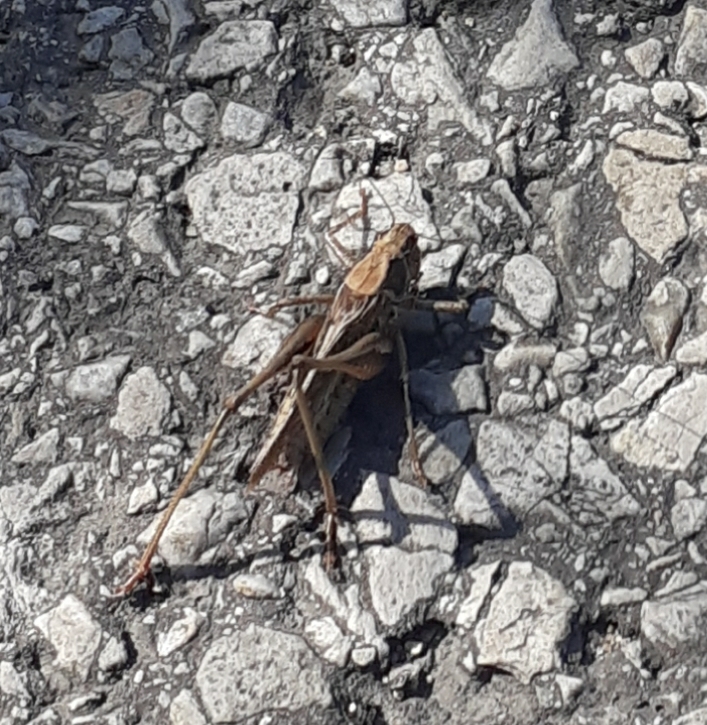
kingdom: Animalia
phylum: Arthropoda
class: Insecta
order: Orthoptera
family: Tettigoniidae
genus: Platycleis
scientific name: Platycleis albopunctata
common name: Grey bush-cricket
